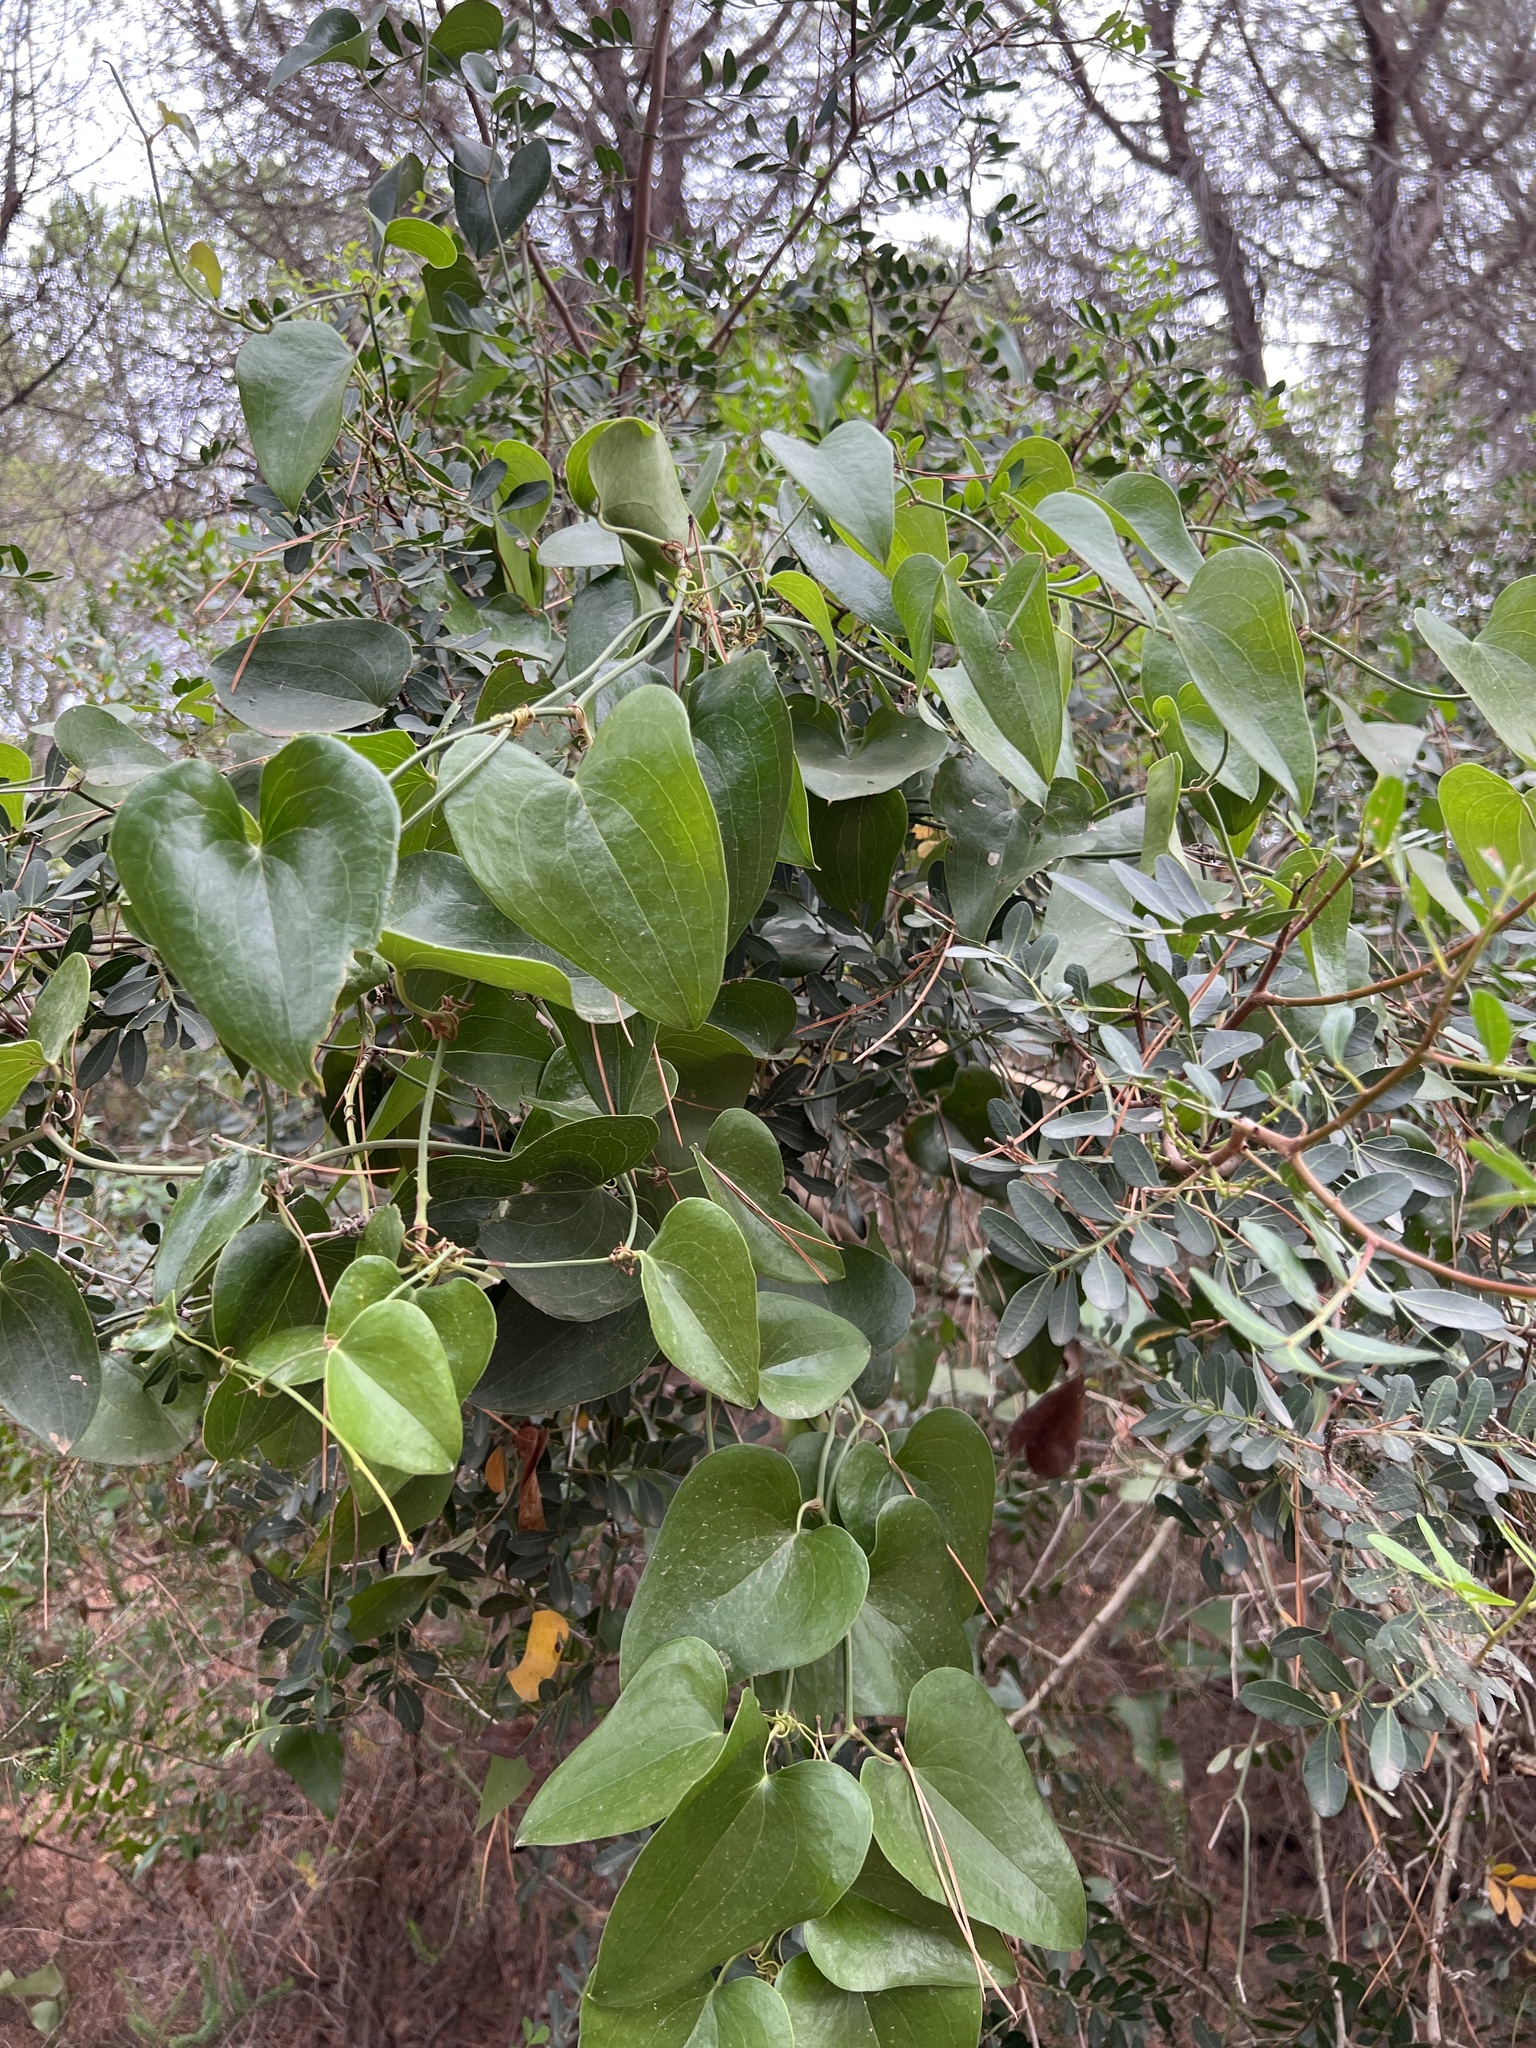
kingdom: Plantae
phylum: Tracheophyta
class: Liliopsida
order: Liliales
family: Smilacaceae
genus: Smilax
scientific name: Smilax aspera
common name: Common smilax
